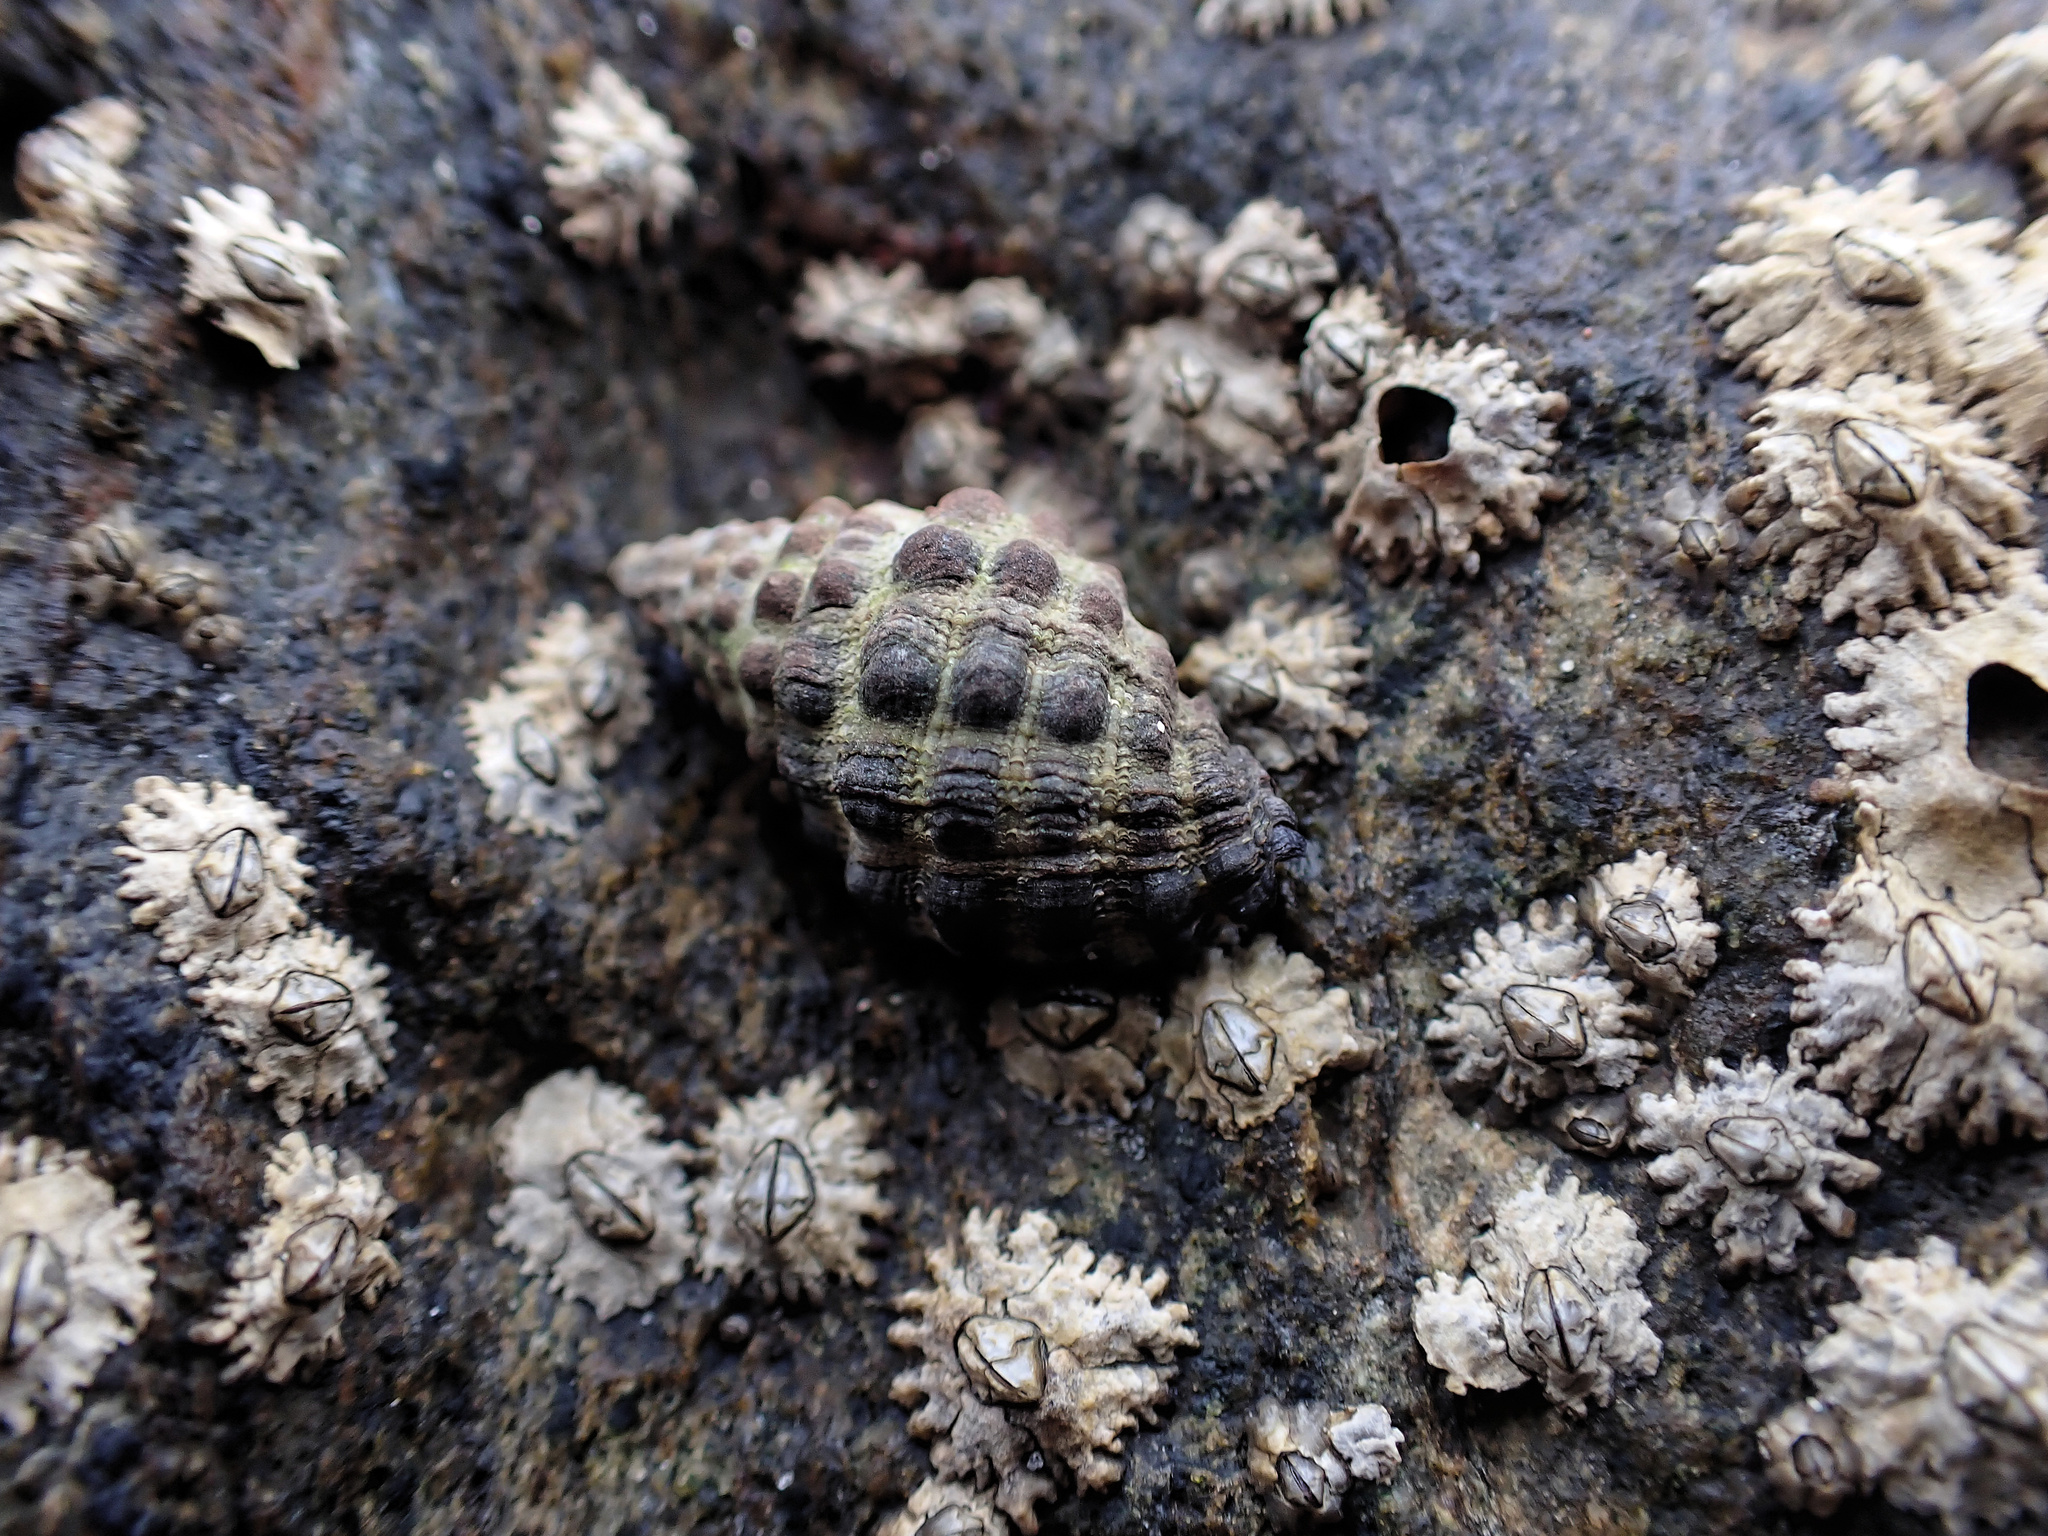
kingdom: Animalia
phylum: Mollusca
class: Gastropoda
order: Neogastropoda
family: Muricidae
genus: Tenguella
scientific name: Tenguella marginalba
